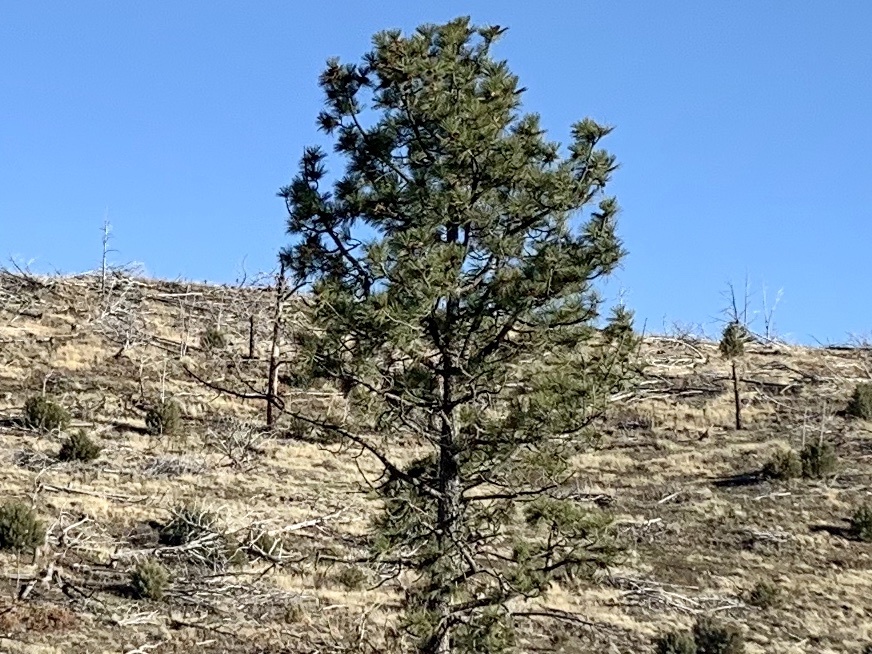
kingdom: Plantae
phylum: Tracheophyta
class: Pinopsida
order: Pinales
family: Pinaceae
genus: Pinus
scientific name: Pinus ponderosa
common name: Western yellow-pine
